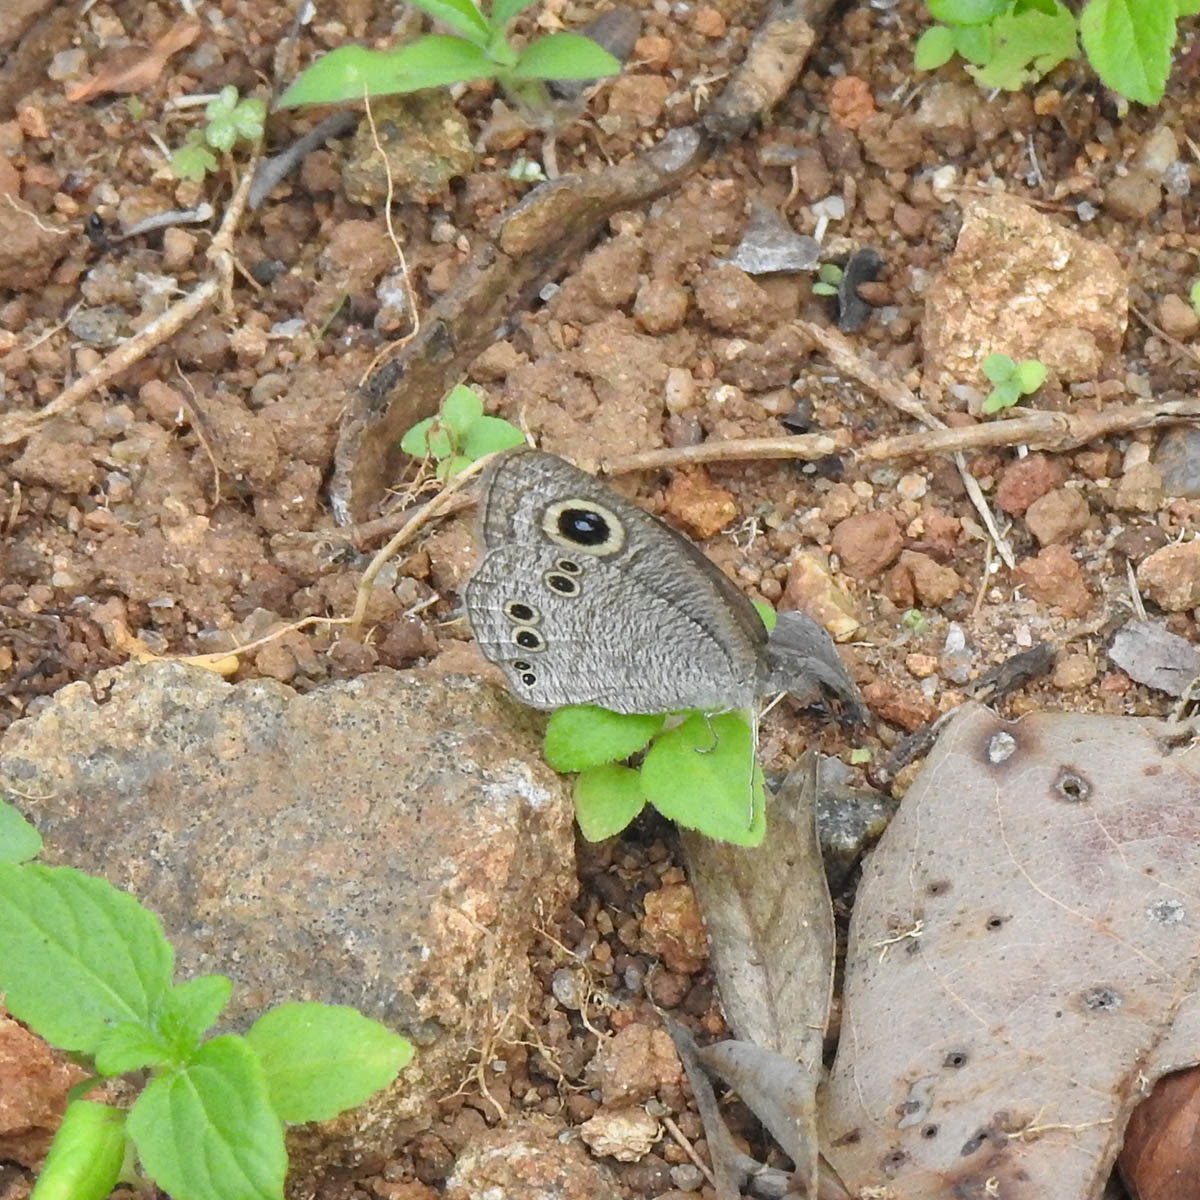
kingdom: Animalia
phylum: Arthropoda
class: Insecta
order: Lepidoptera
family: Nymphalidae
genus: Ypthima
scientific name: Ypthima baldus
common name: Common five-ring
